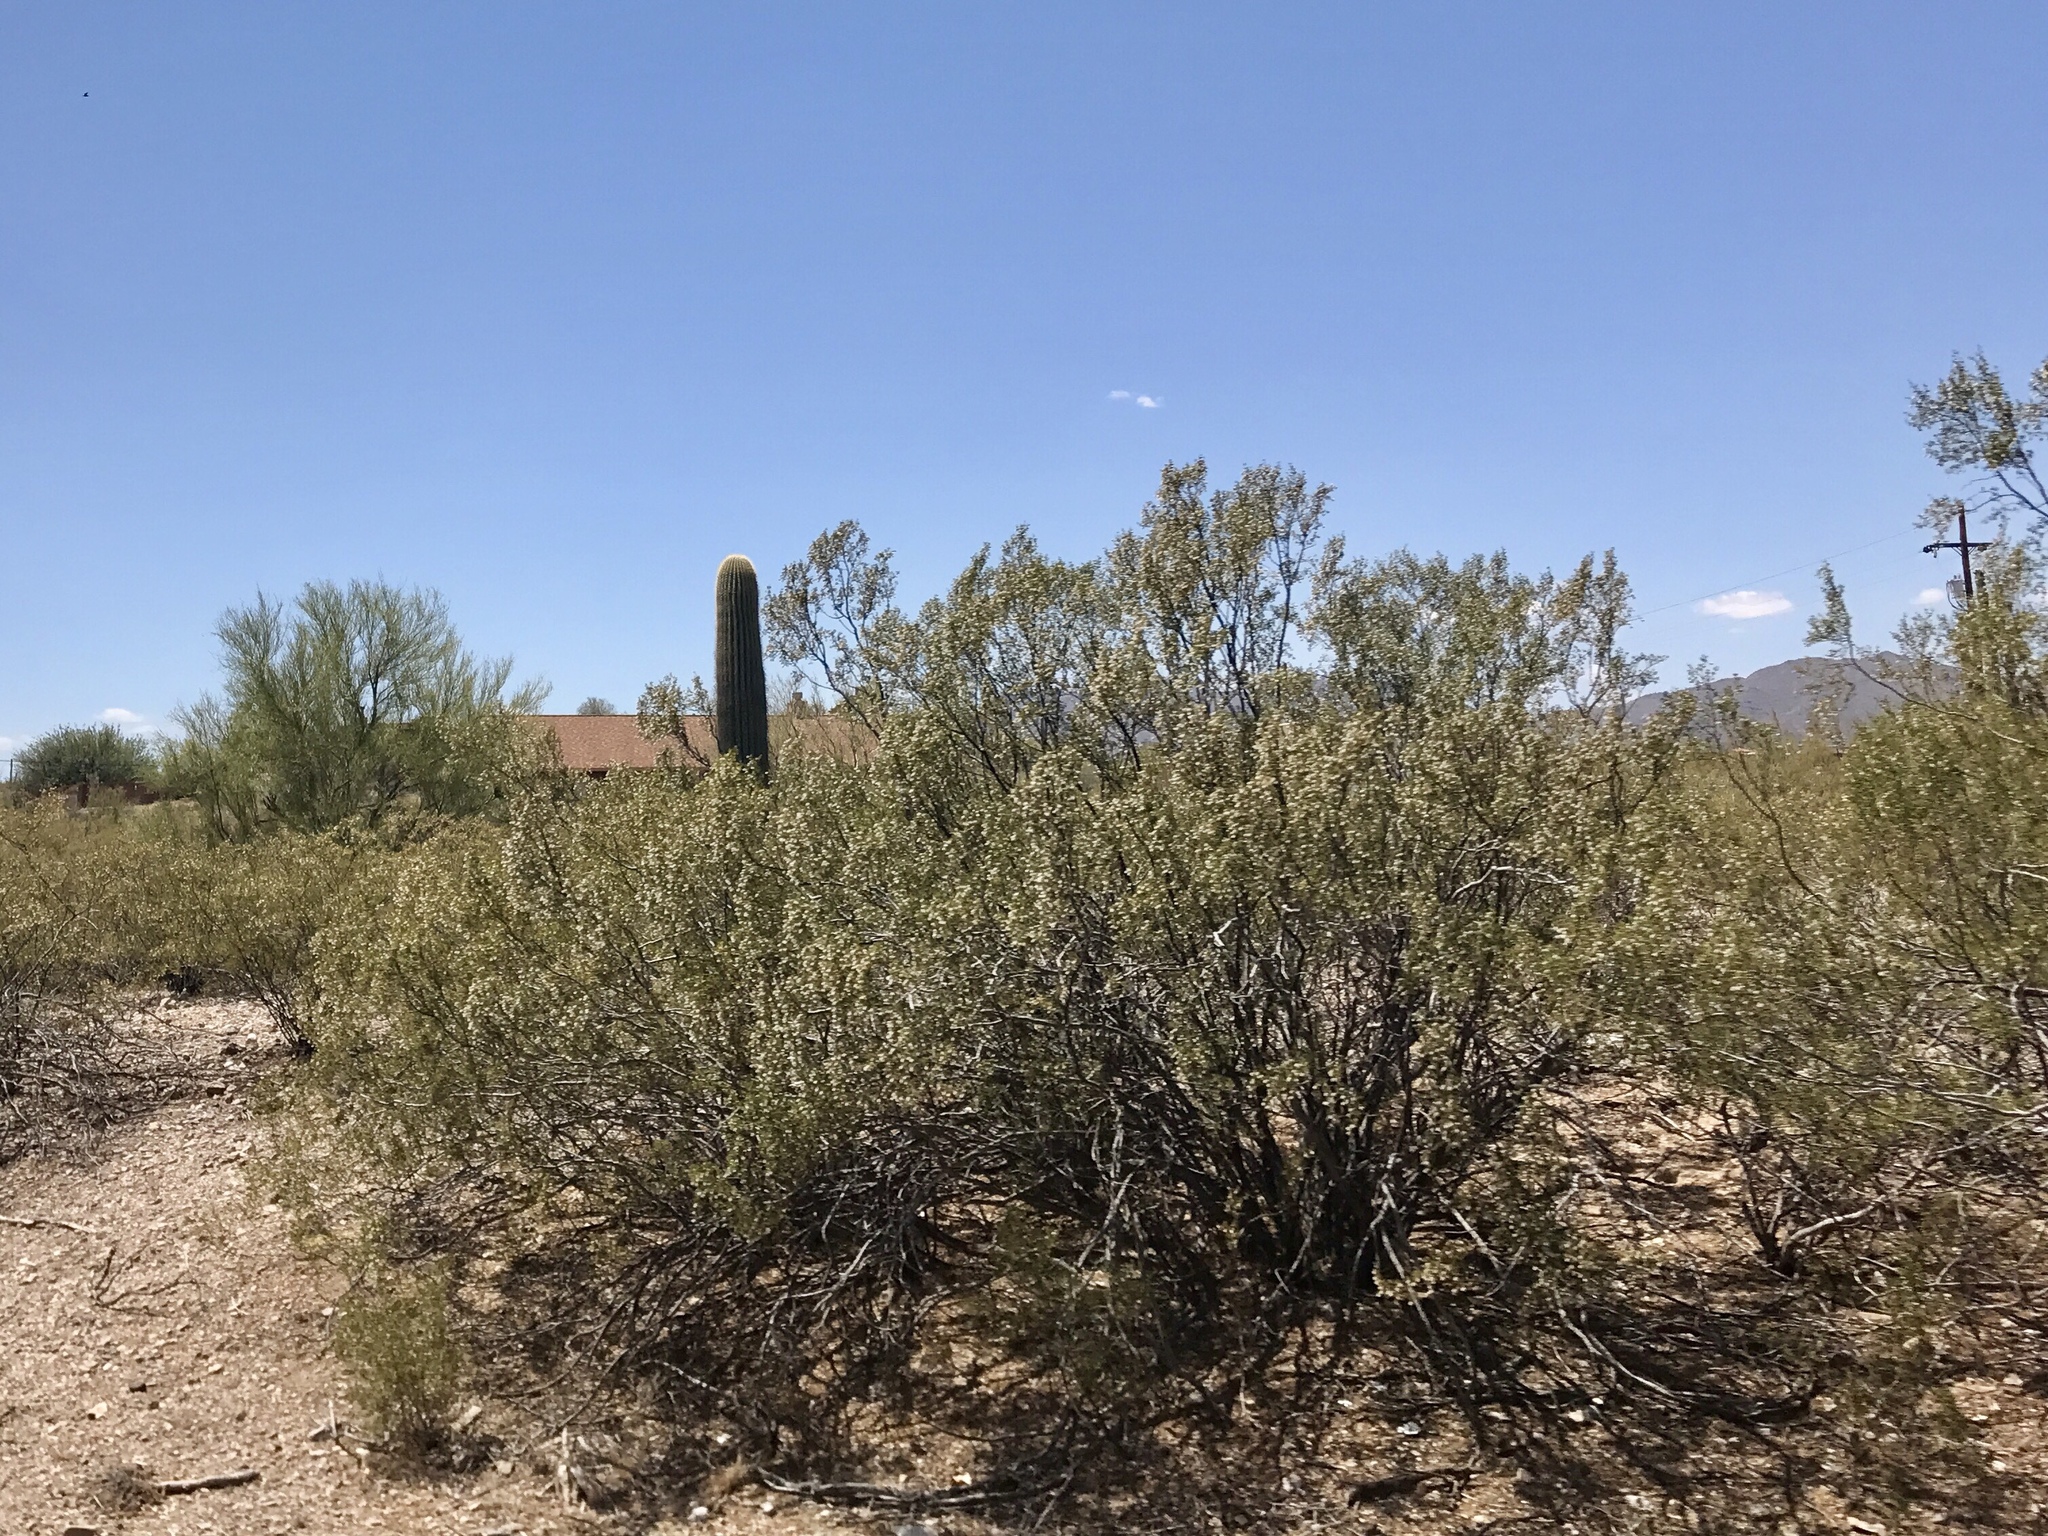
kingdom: Plantae
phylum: Tracheophyta
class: Magnoliopsida
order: Zygophyllales
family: Zygophyllaceae
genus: Larrea
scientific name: Larrea tridentata
